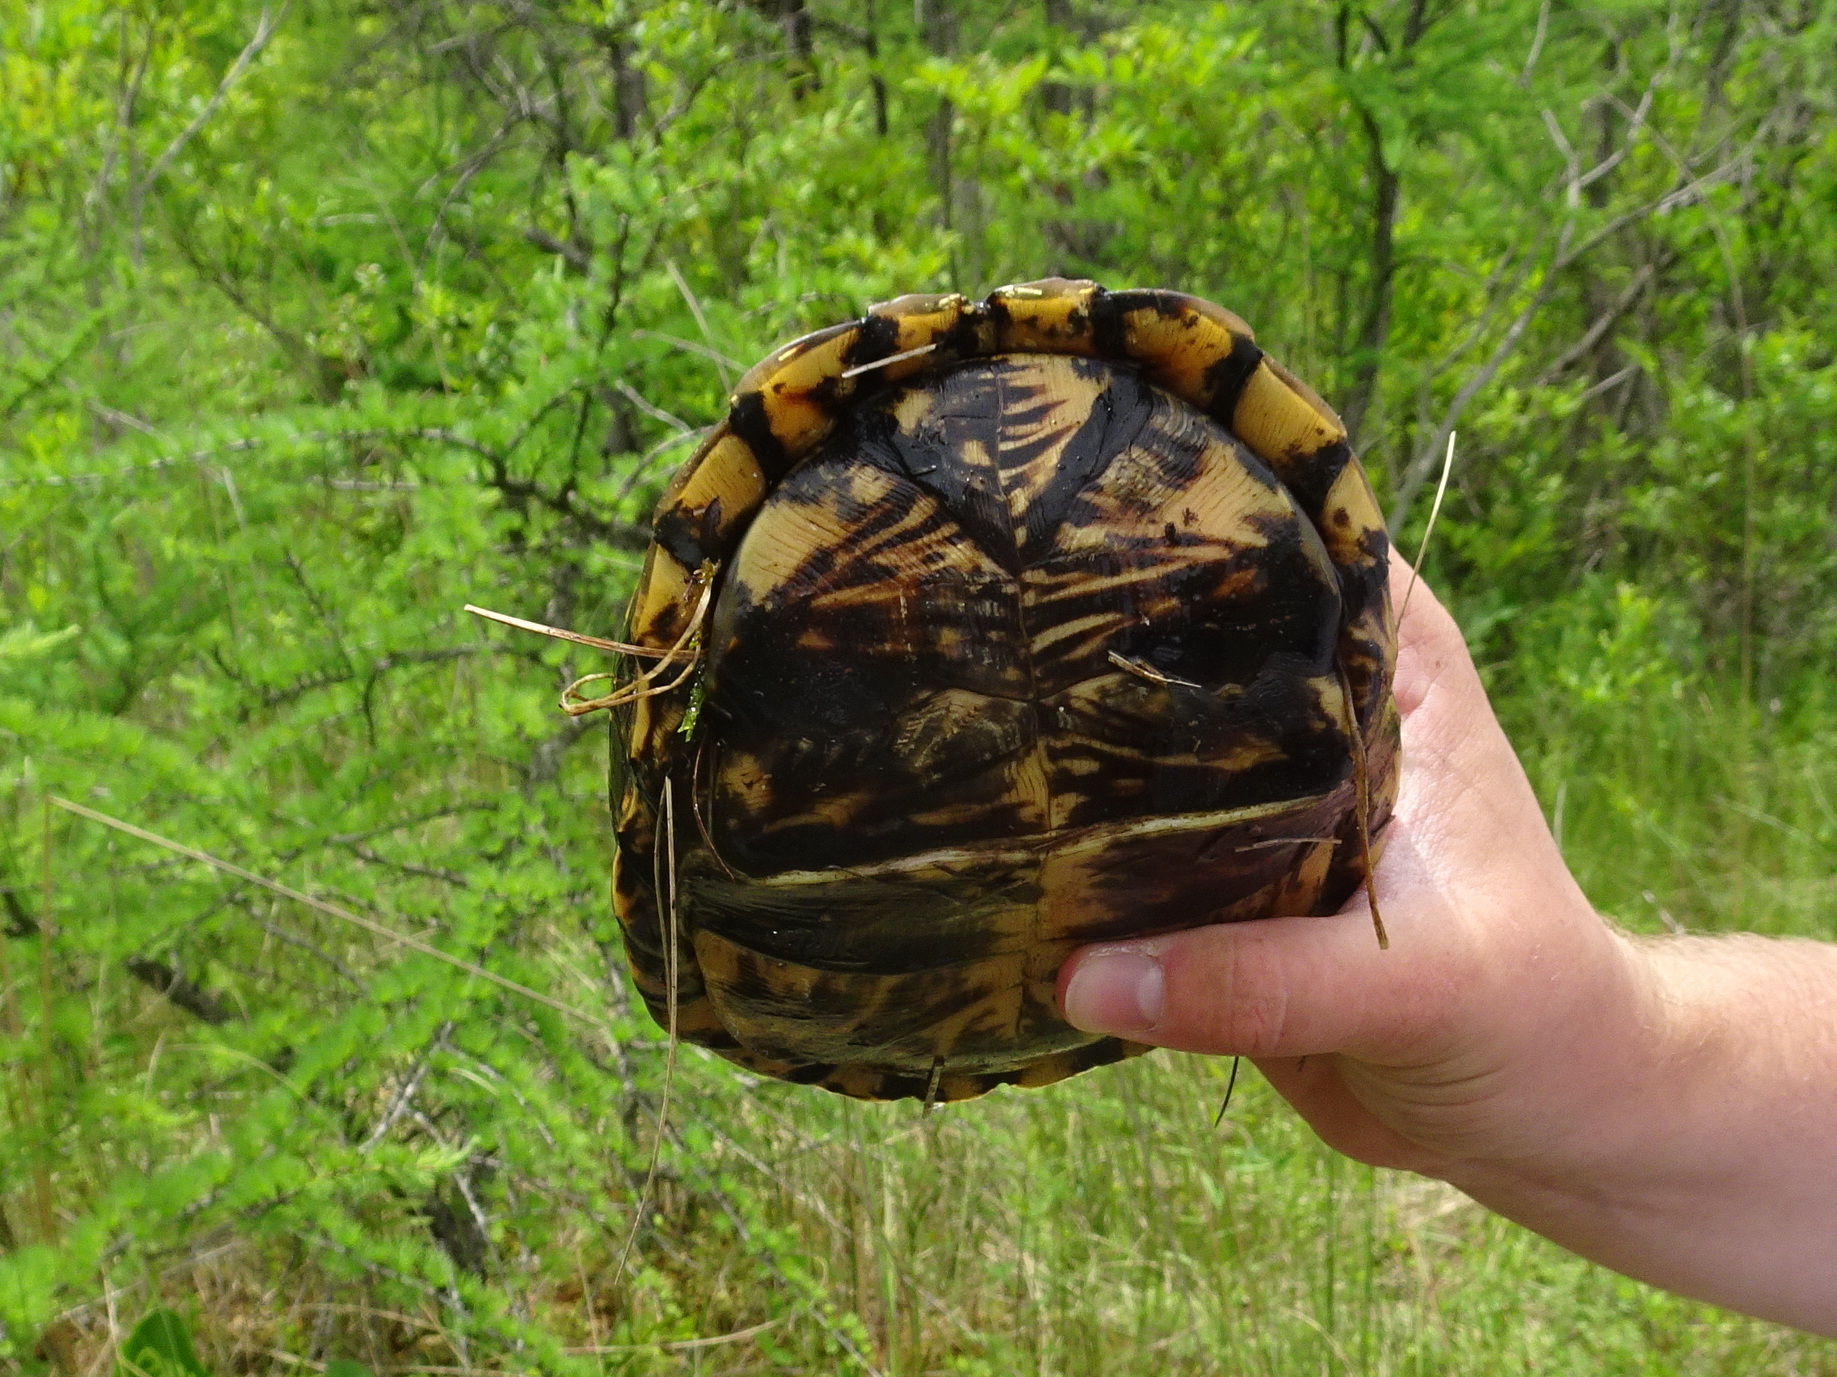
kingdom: Animalia
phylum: Chordata
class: Testudines
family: Emydidae
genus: Terrapene
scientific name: Terrapene carolina
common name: Common box turtle
